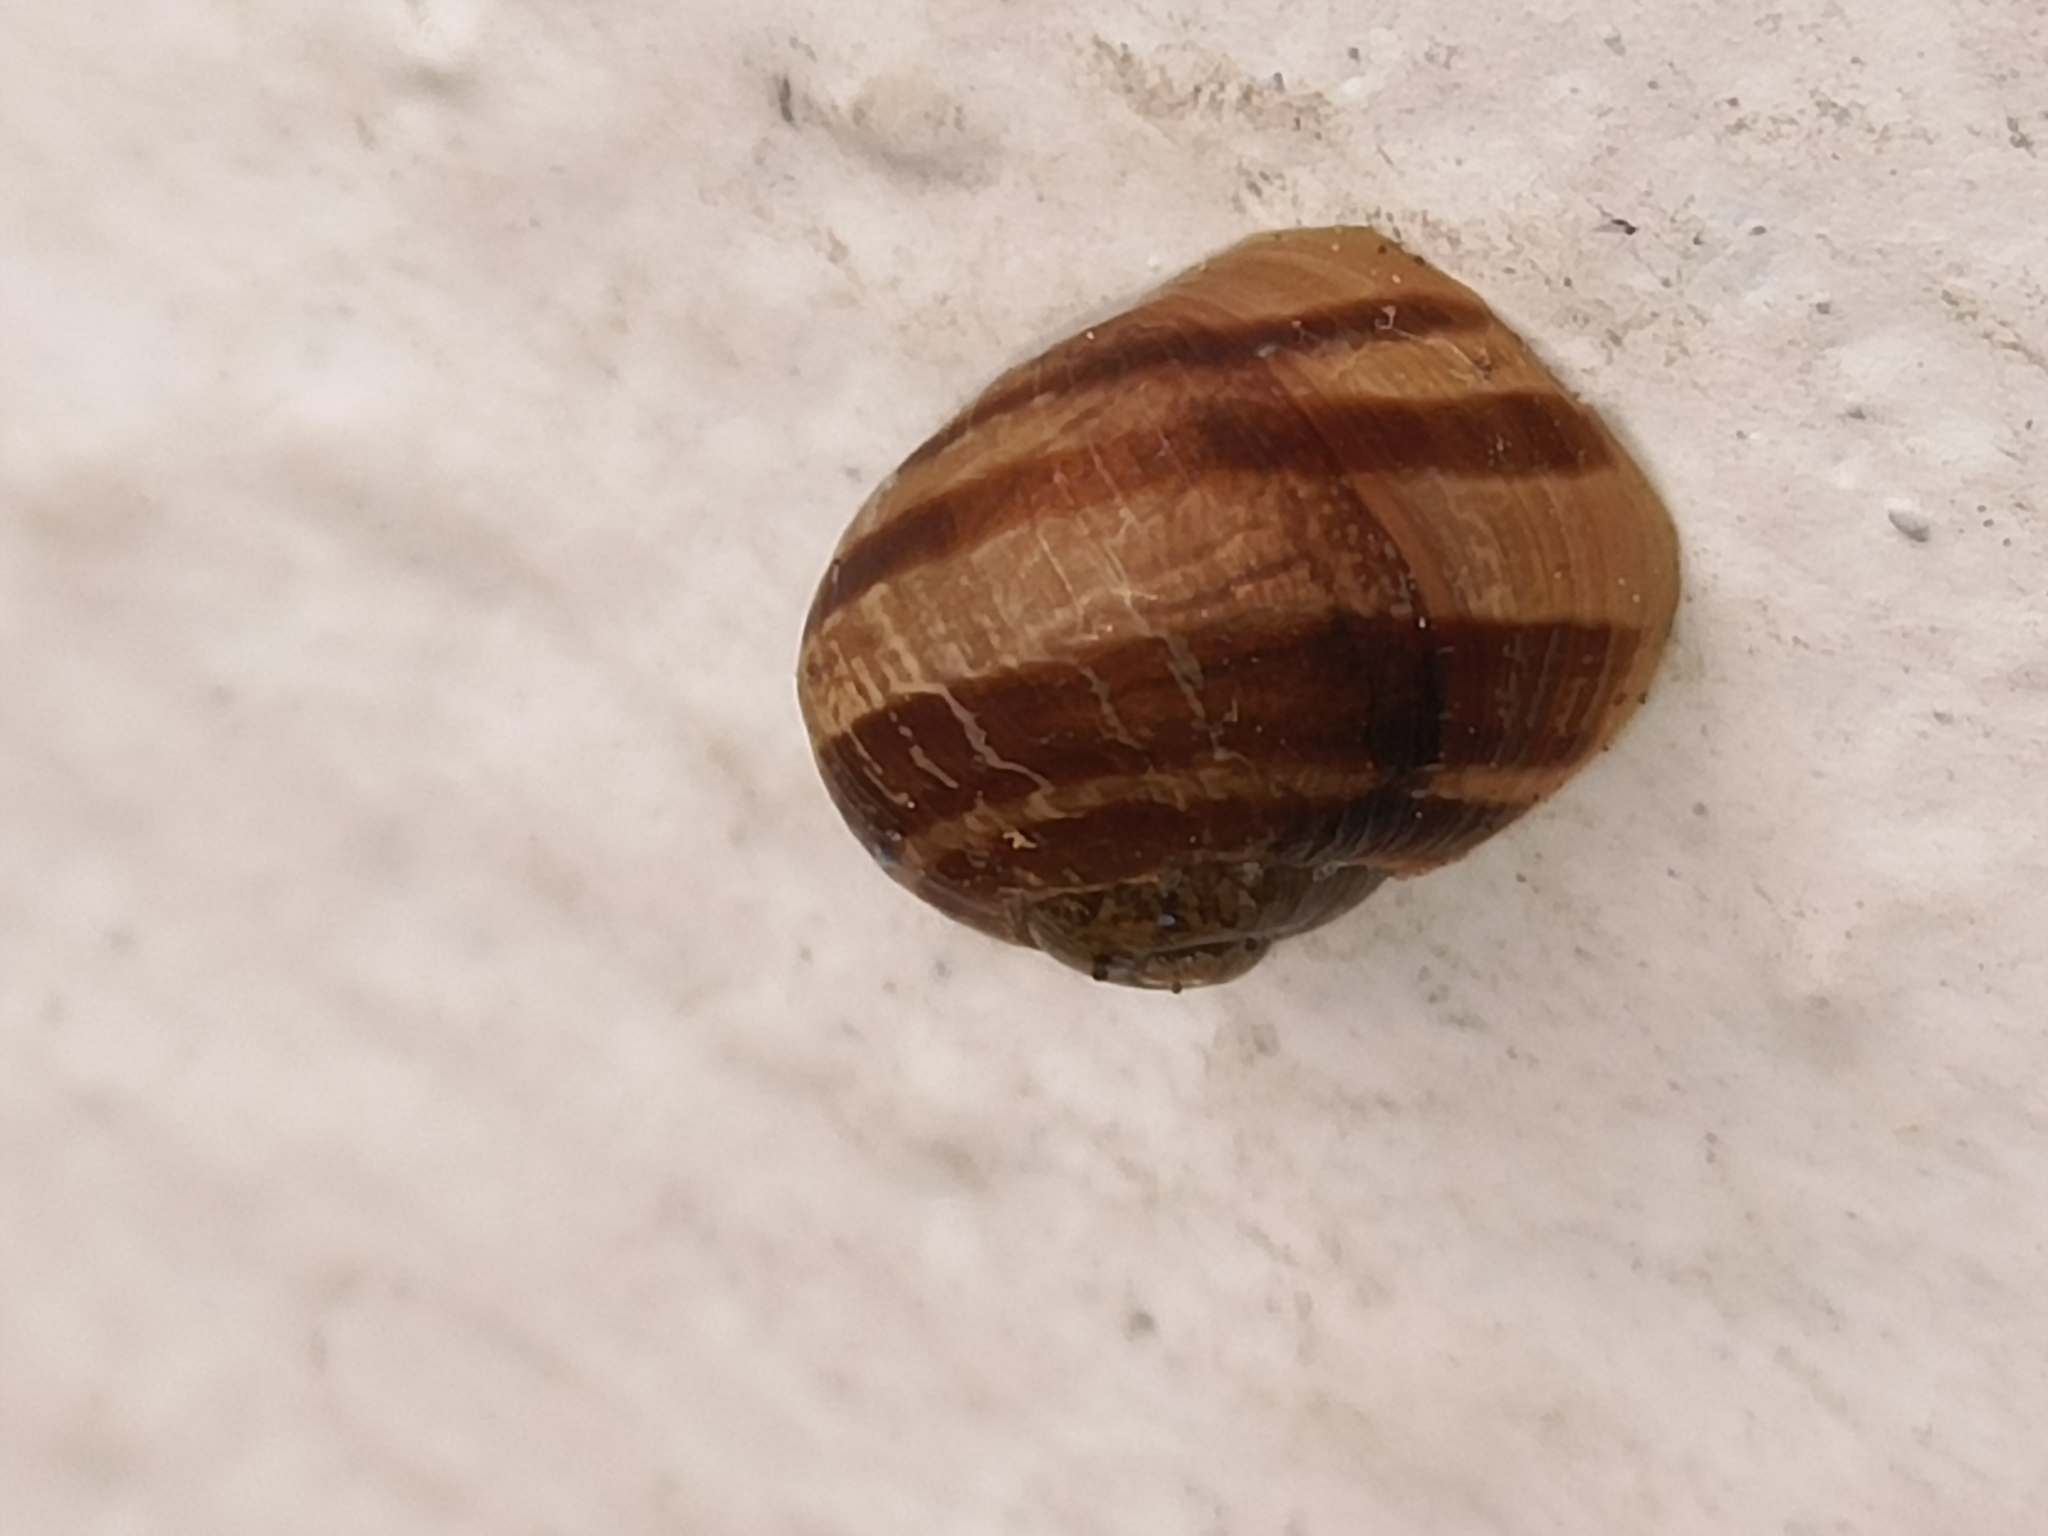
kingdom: Animalia
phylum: Mollusca
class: Gastropoda
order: Stylommatophora
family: Helicidae
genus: Cornu
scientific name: Cornu aspersum
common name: Brown garden snail
